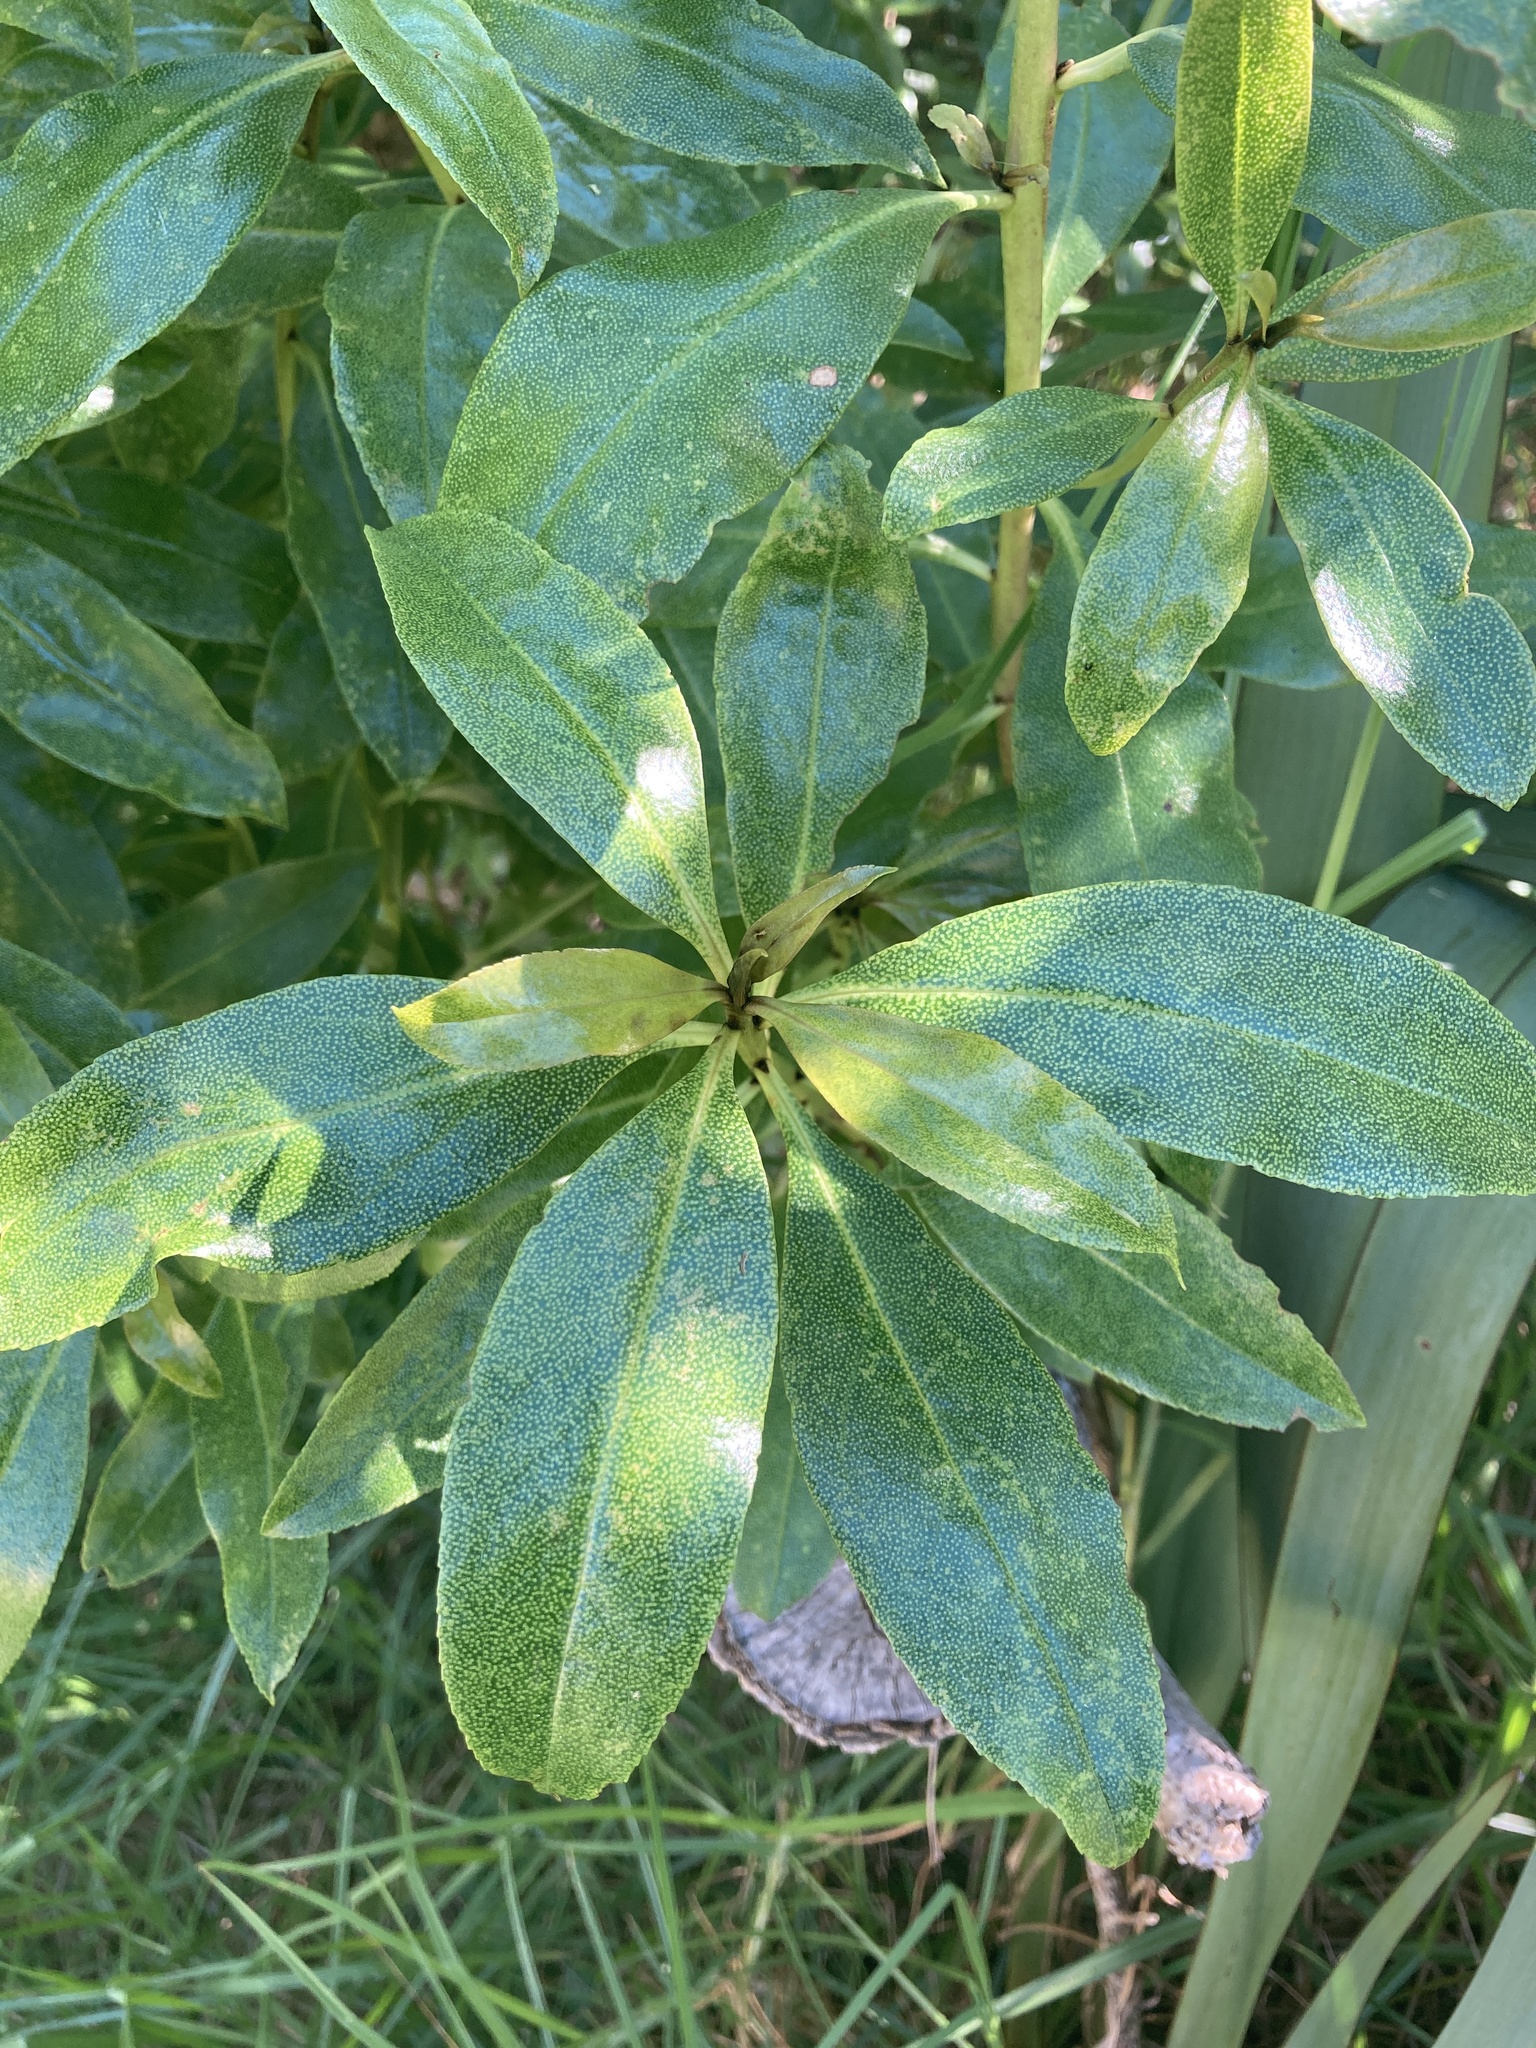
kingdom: Plantae
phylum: Tracheophyta
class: Magnoliopsida
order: Lamiales
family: Scrophulariaceae
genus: Myoporum
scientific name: Myoporum laetum
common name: Ngaio tree
